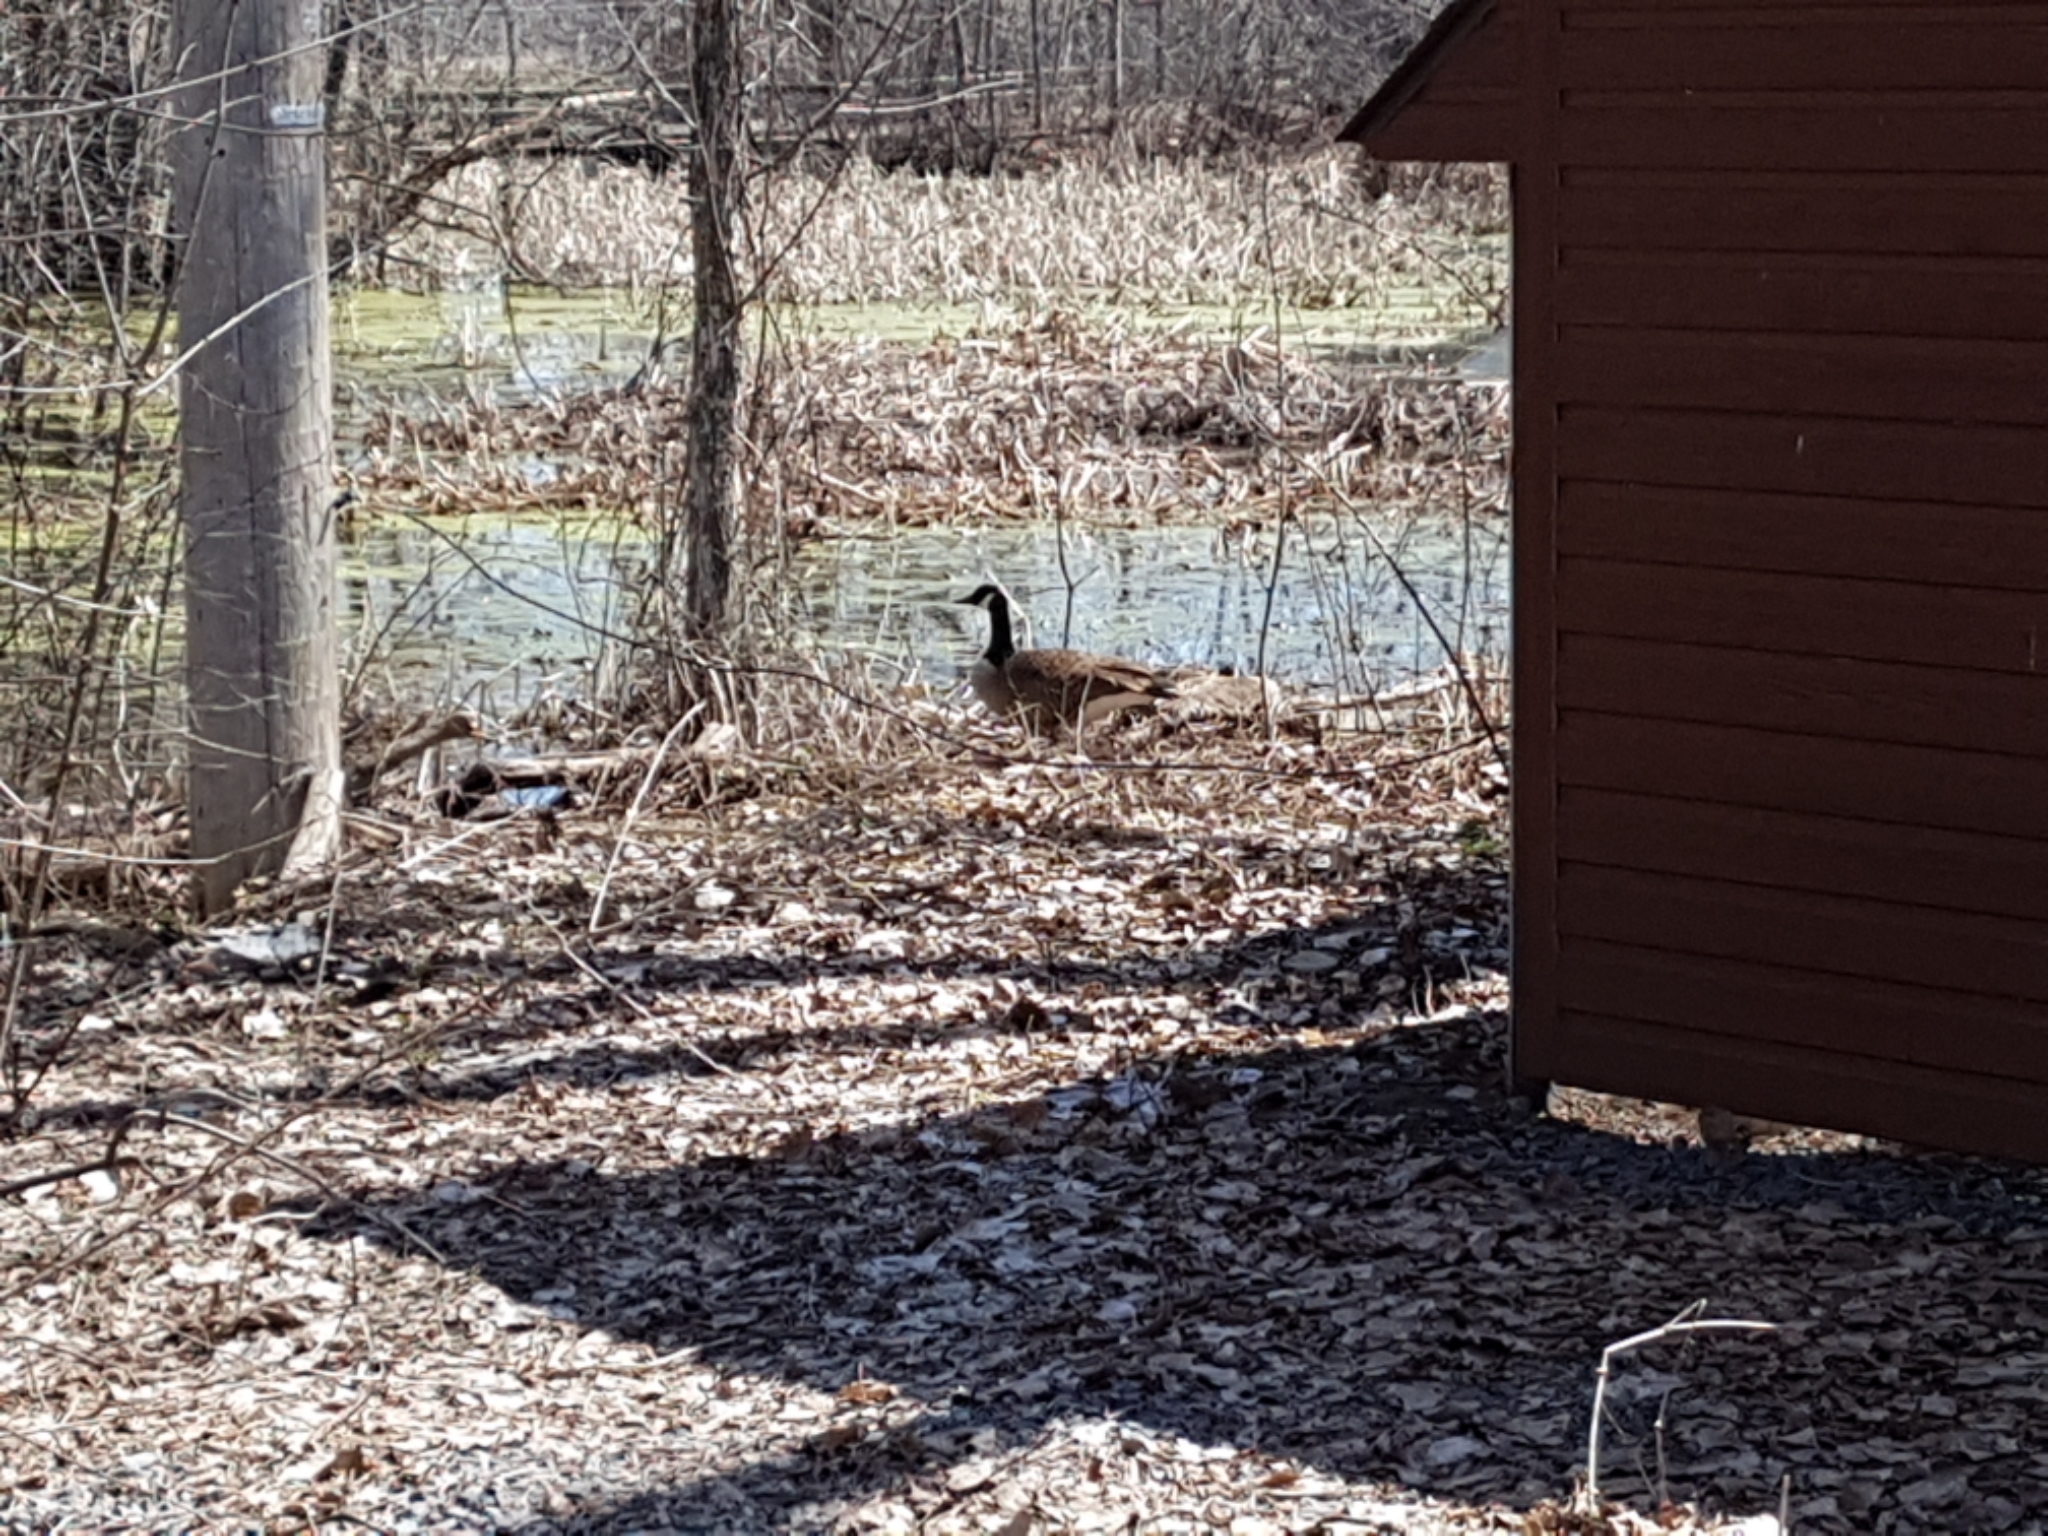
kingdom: Animalia
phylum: Chordata
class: Aves
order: Anseriformes
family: Anatidae
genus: Branta
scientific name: Branta canadensis
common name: Canada goose
